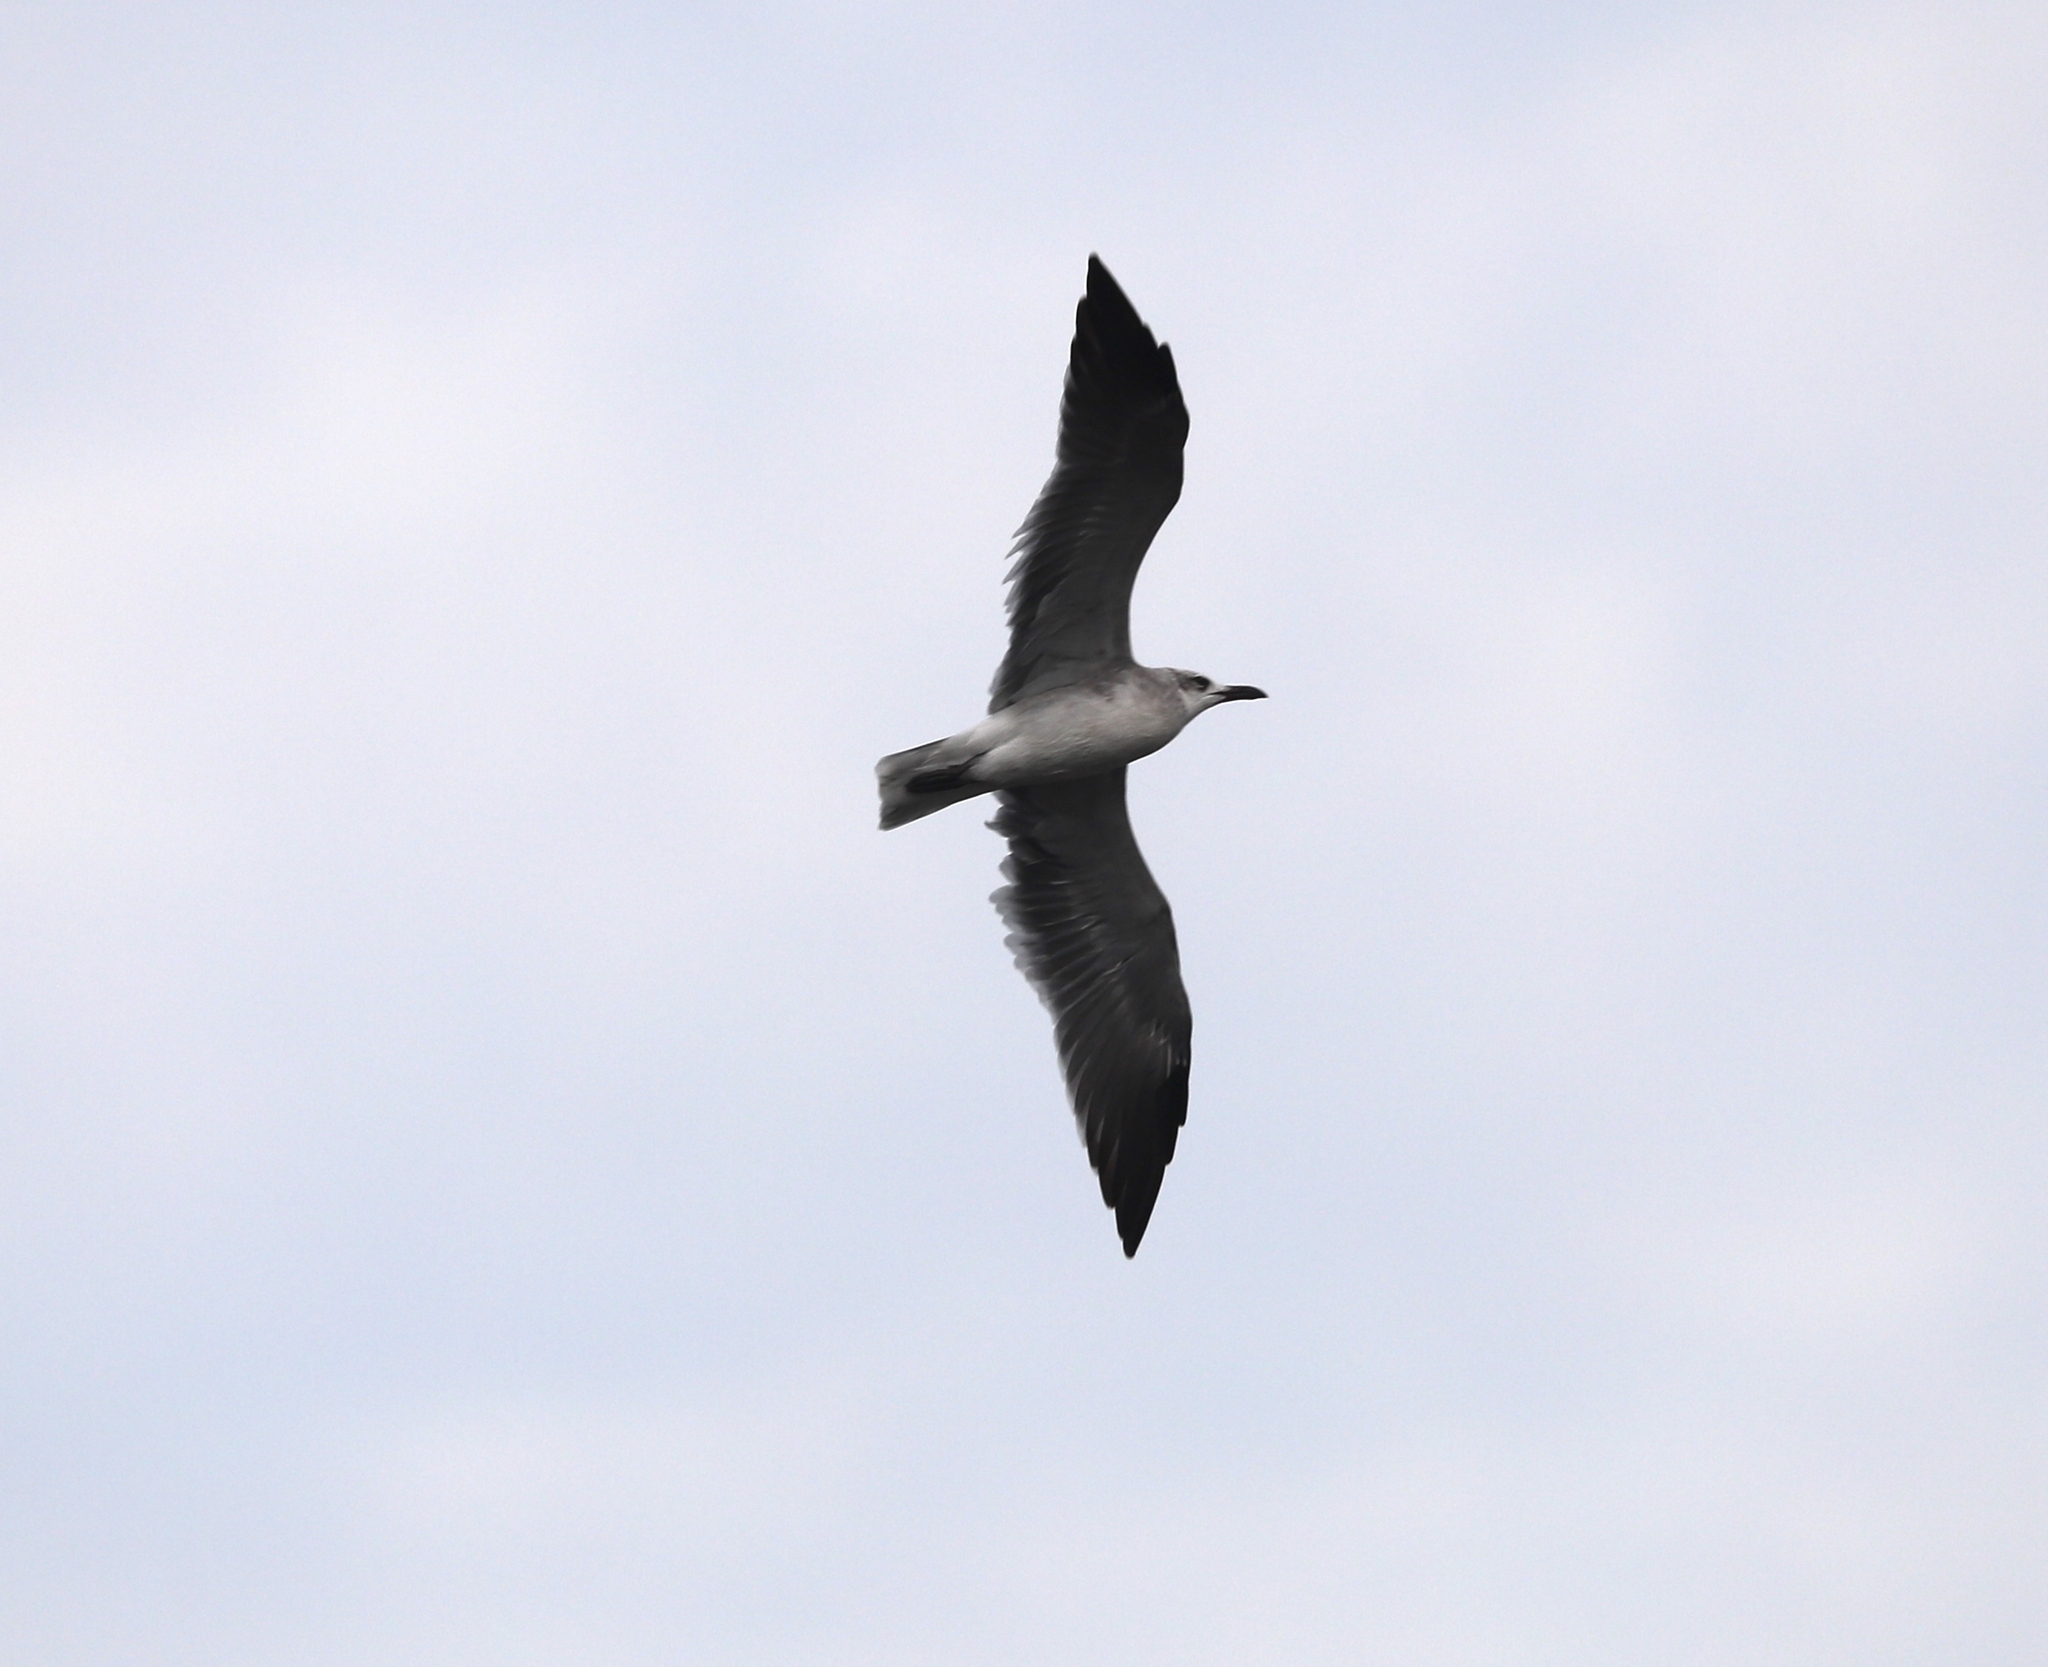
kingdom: Animalia
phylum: Chordata
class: Aves
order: Charadriiformes
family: Laridae
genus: Leucophaeus
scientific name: Leucophaeus atricilla
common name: Laughing gull
